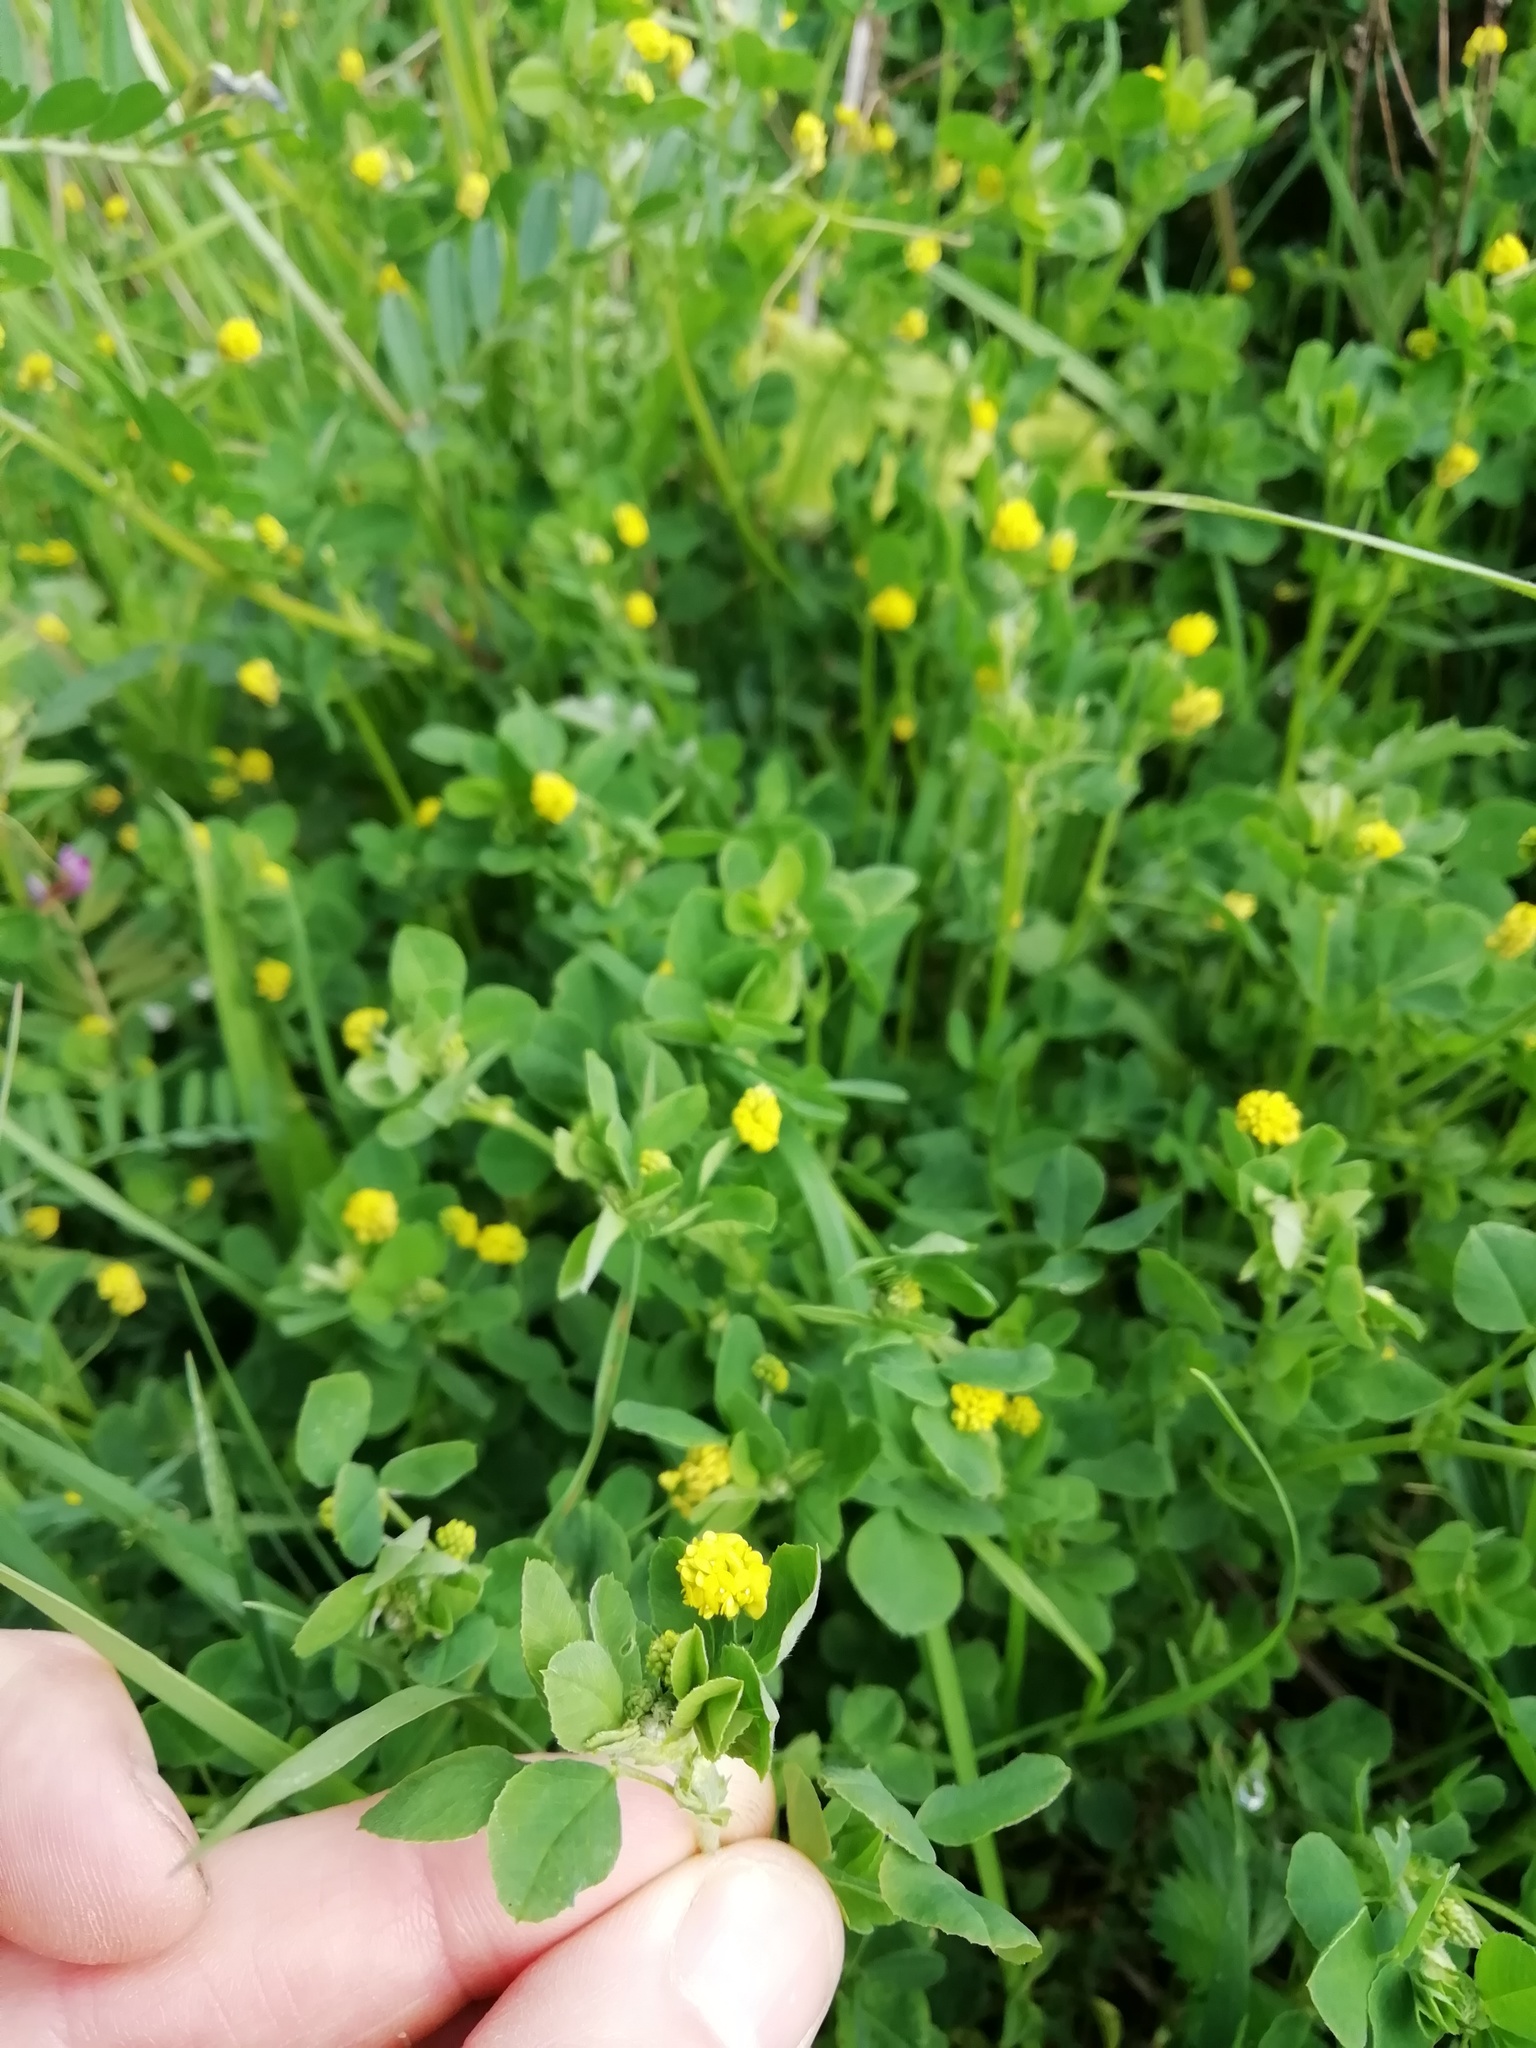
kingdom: Plantae
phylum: Tracheophyta
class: Magnoliopsida
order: Fabales
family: Fabaceae
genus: Medicago
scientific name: Medicago lupulina
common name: Black medick
